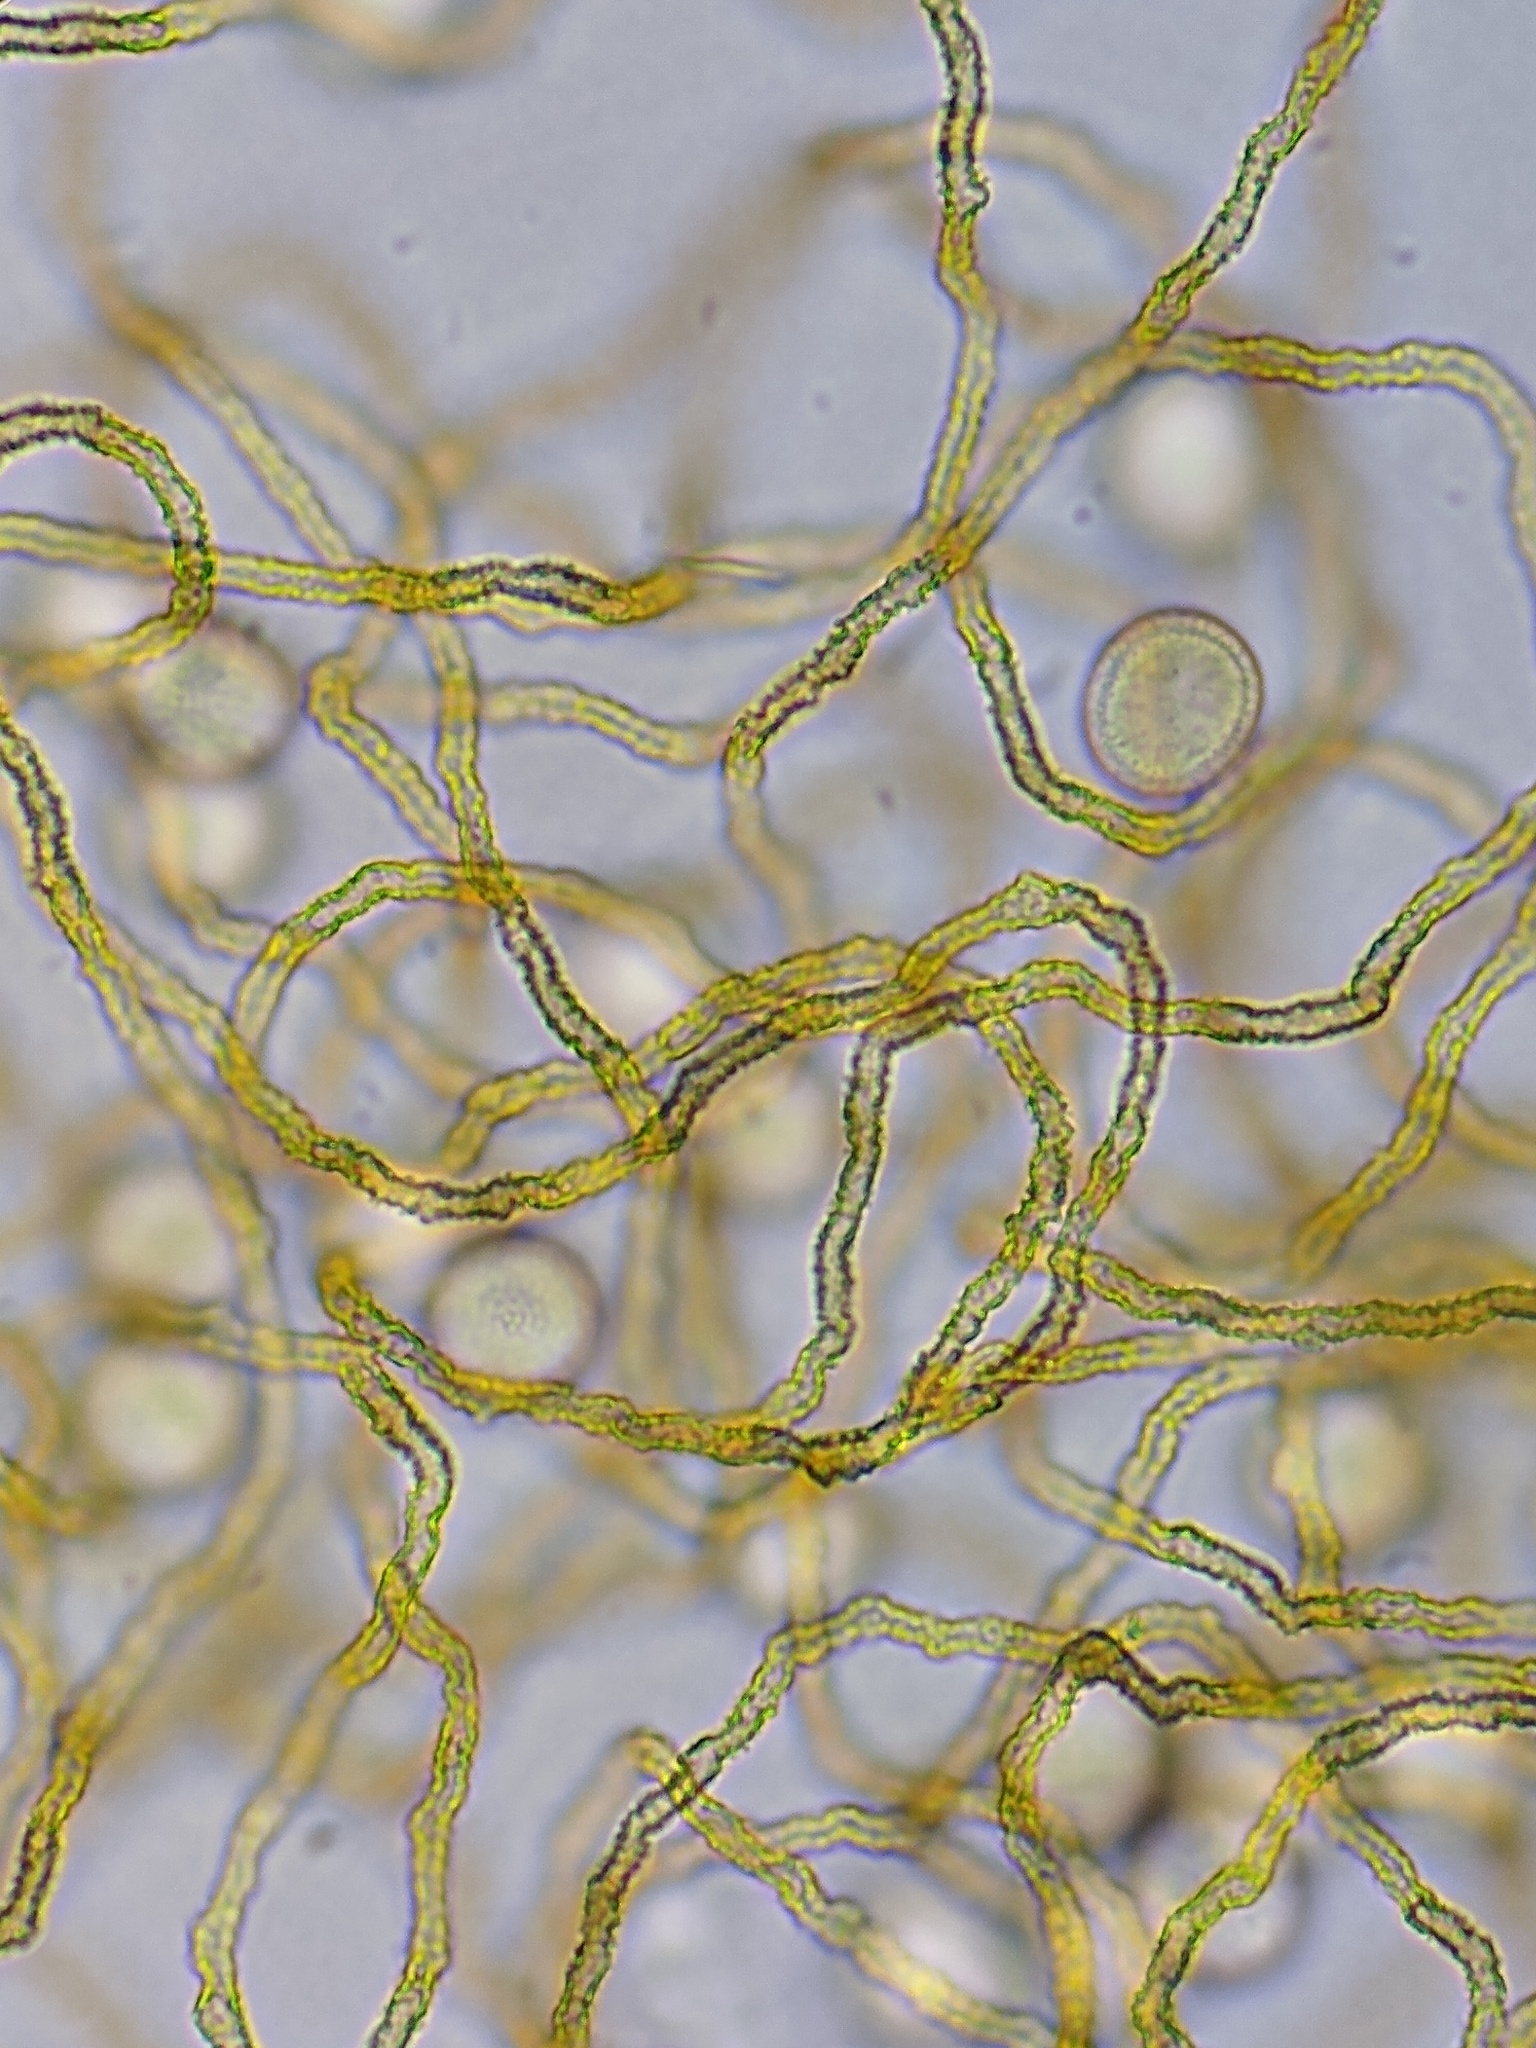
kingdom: Protozoa
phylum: Mycetozoa
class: Myxomycetes
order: Trichiales
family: Trichiaceae
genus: Gulielmina
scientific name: Gulielmina vermicularis
